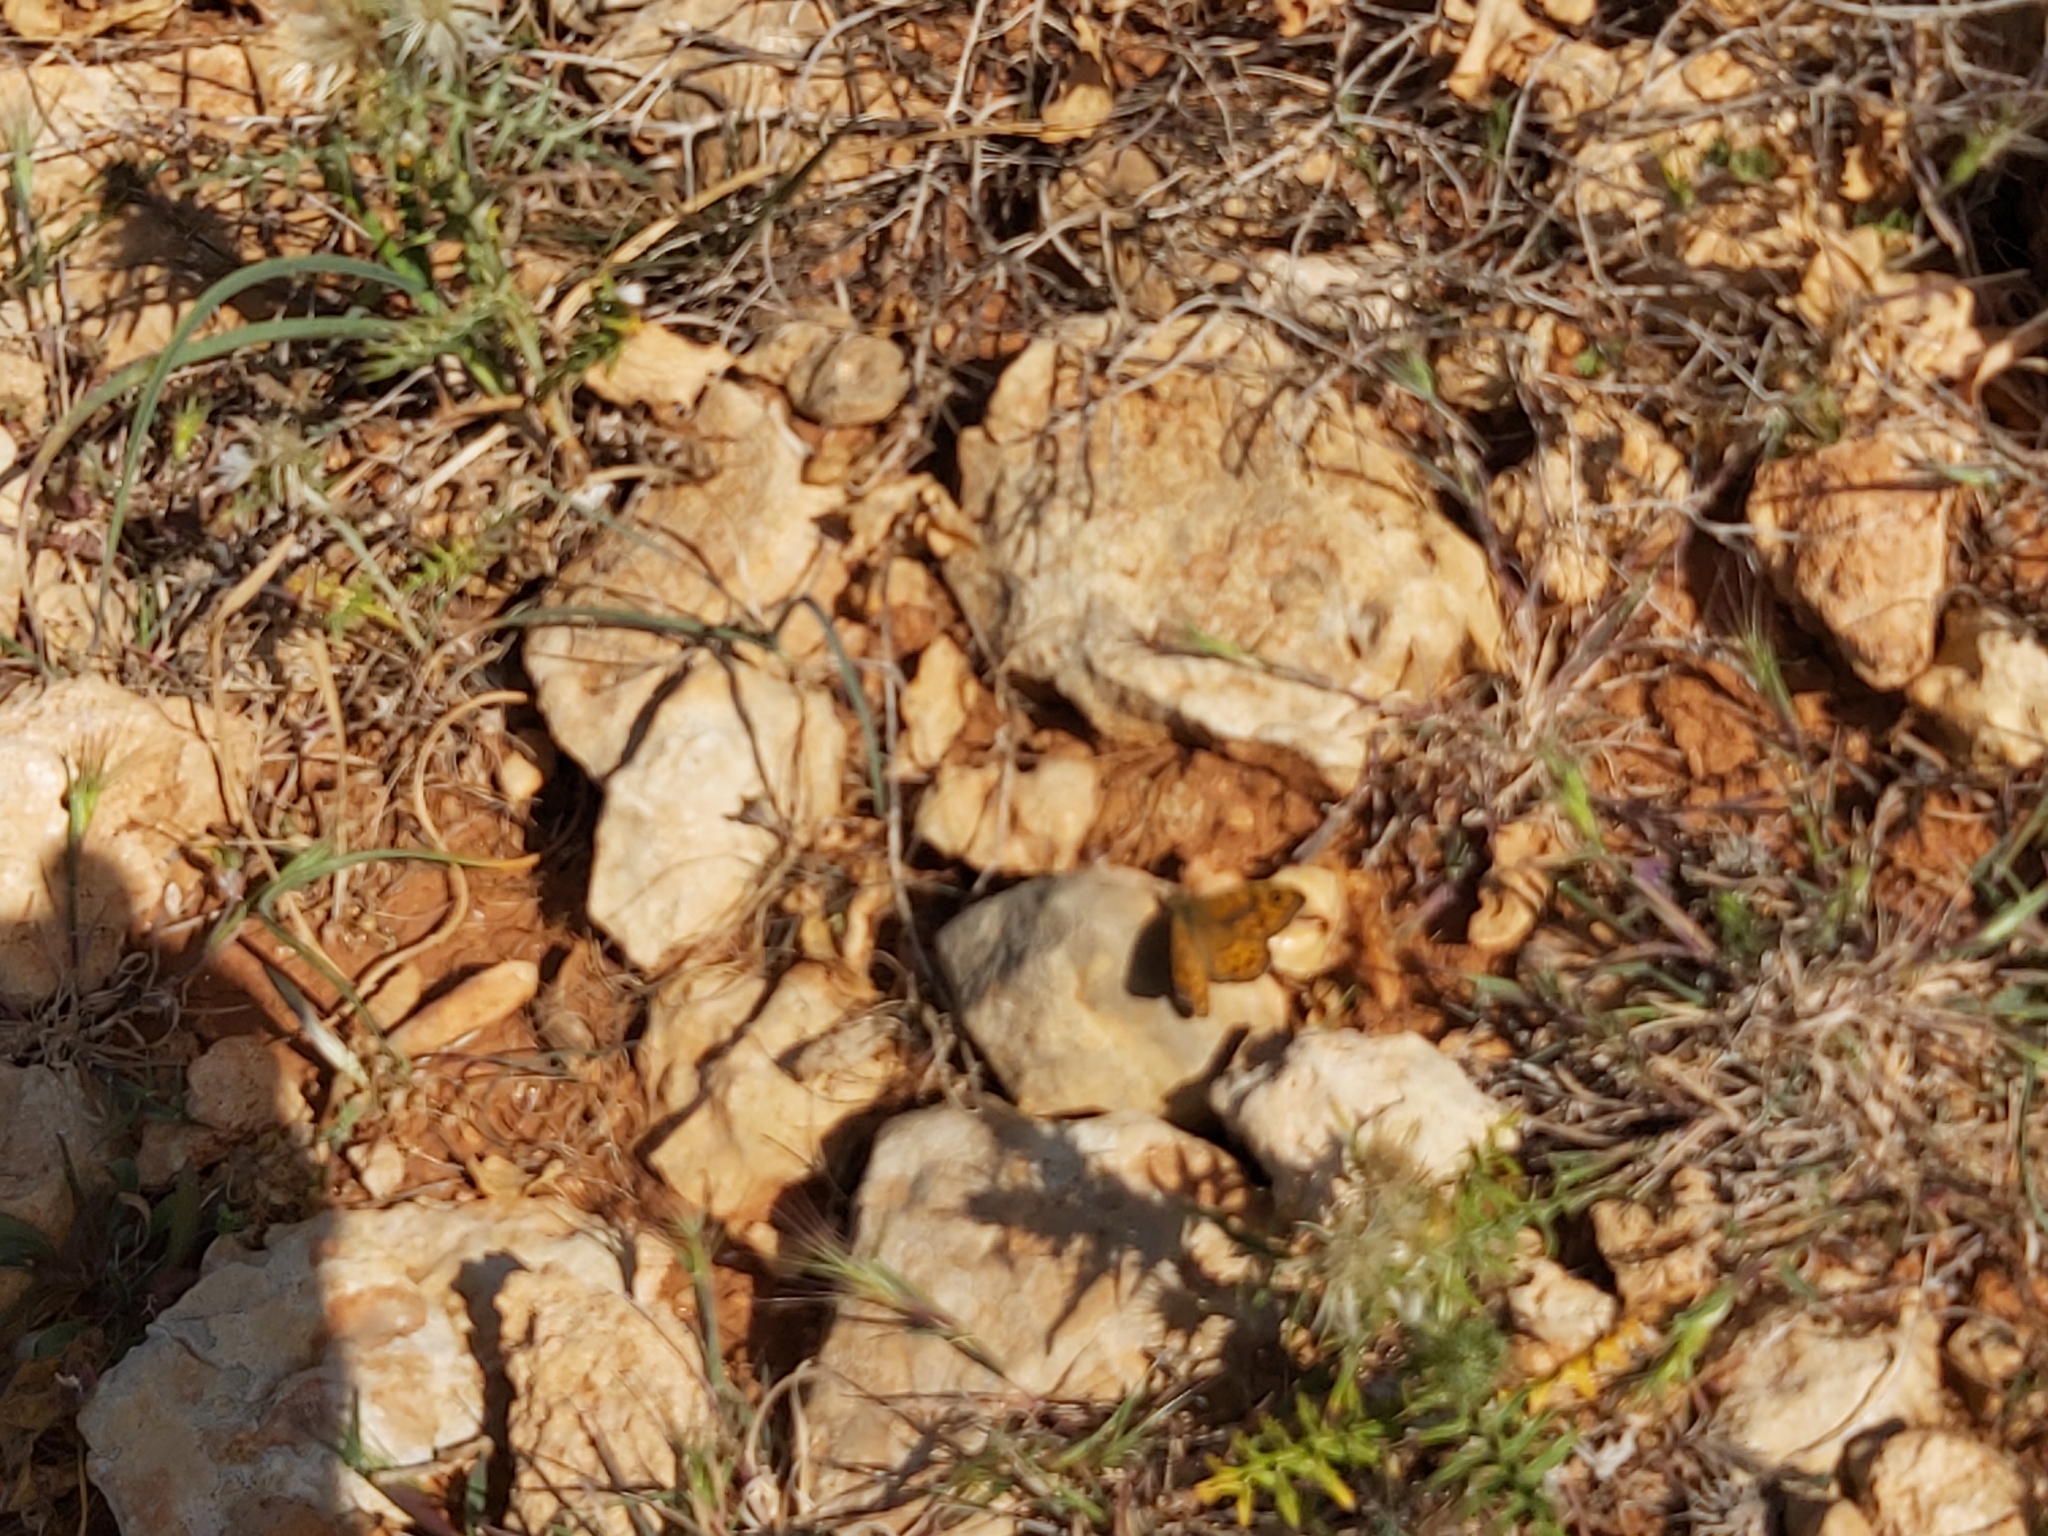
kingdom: Animalia
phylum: Arthropoda
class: Insecta
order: Lepidoptera
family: Nymphalidae
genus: Pararge
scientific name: Pararge Lasiommata megera
